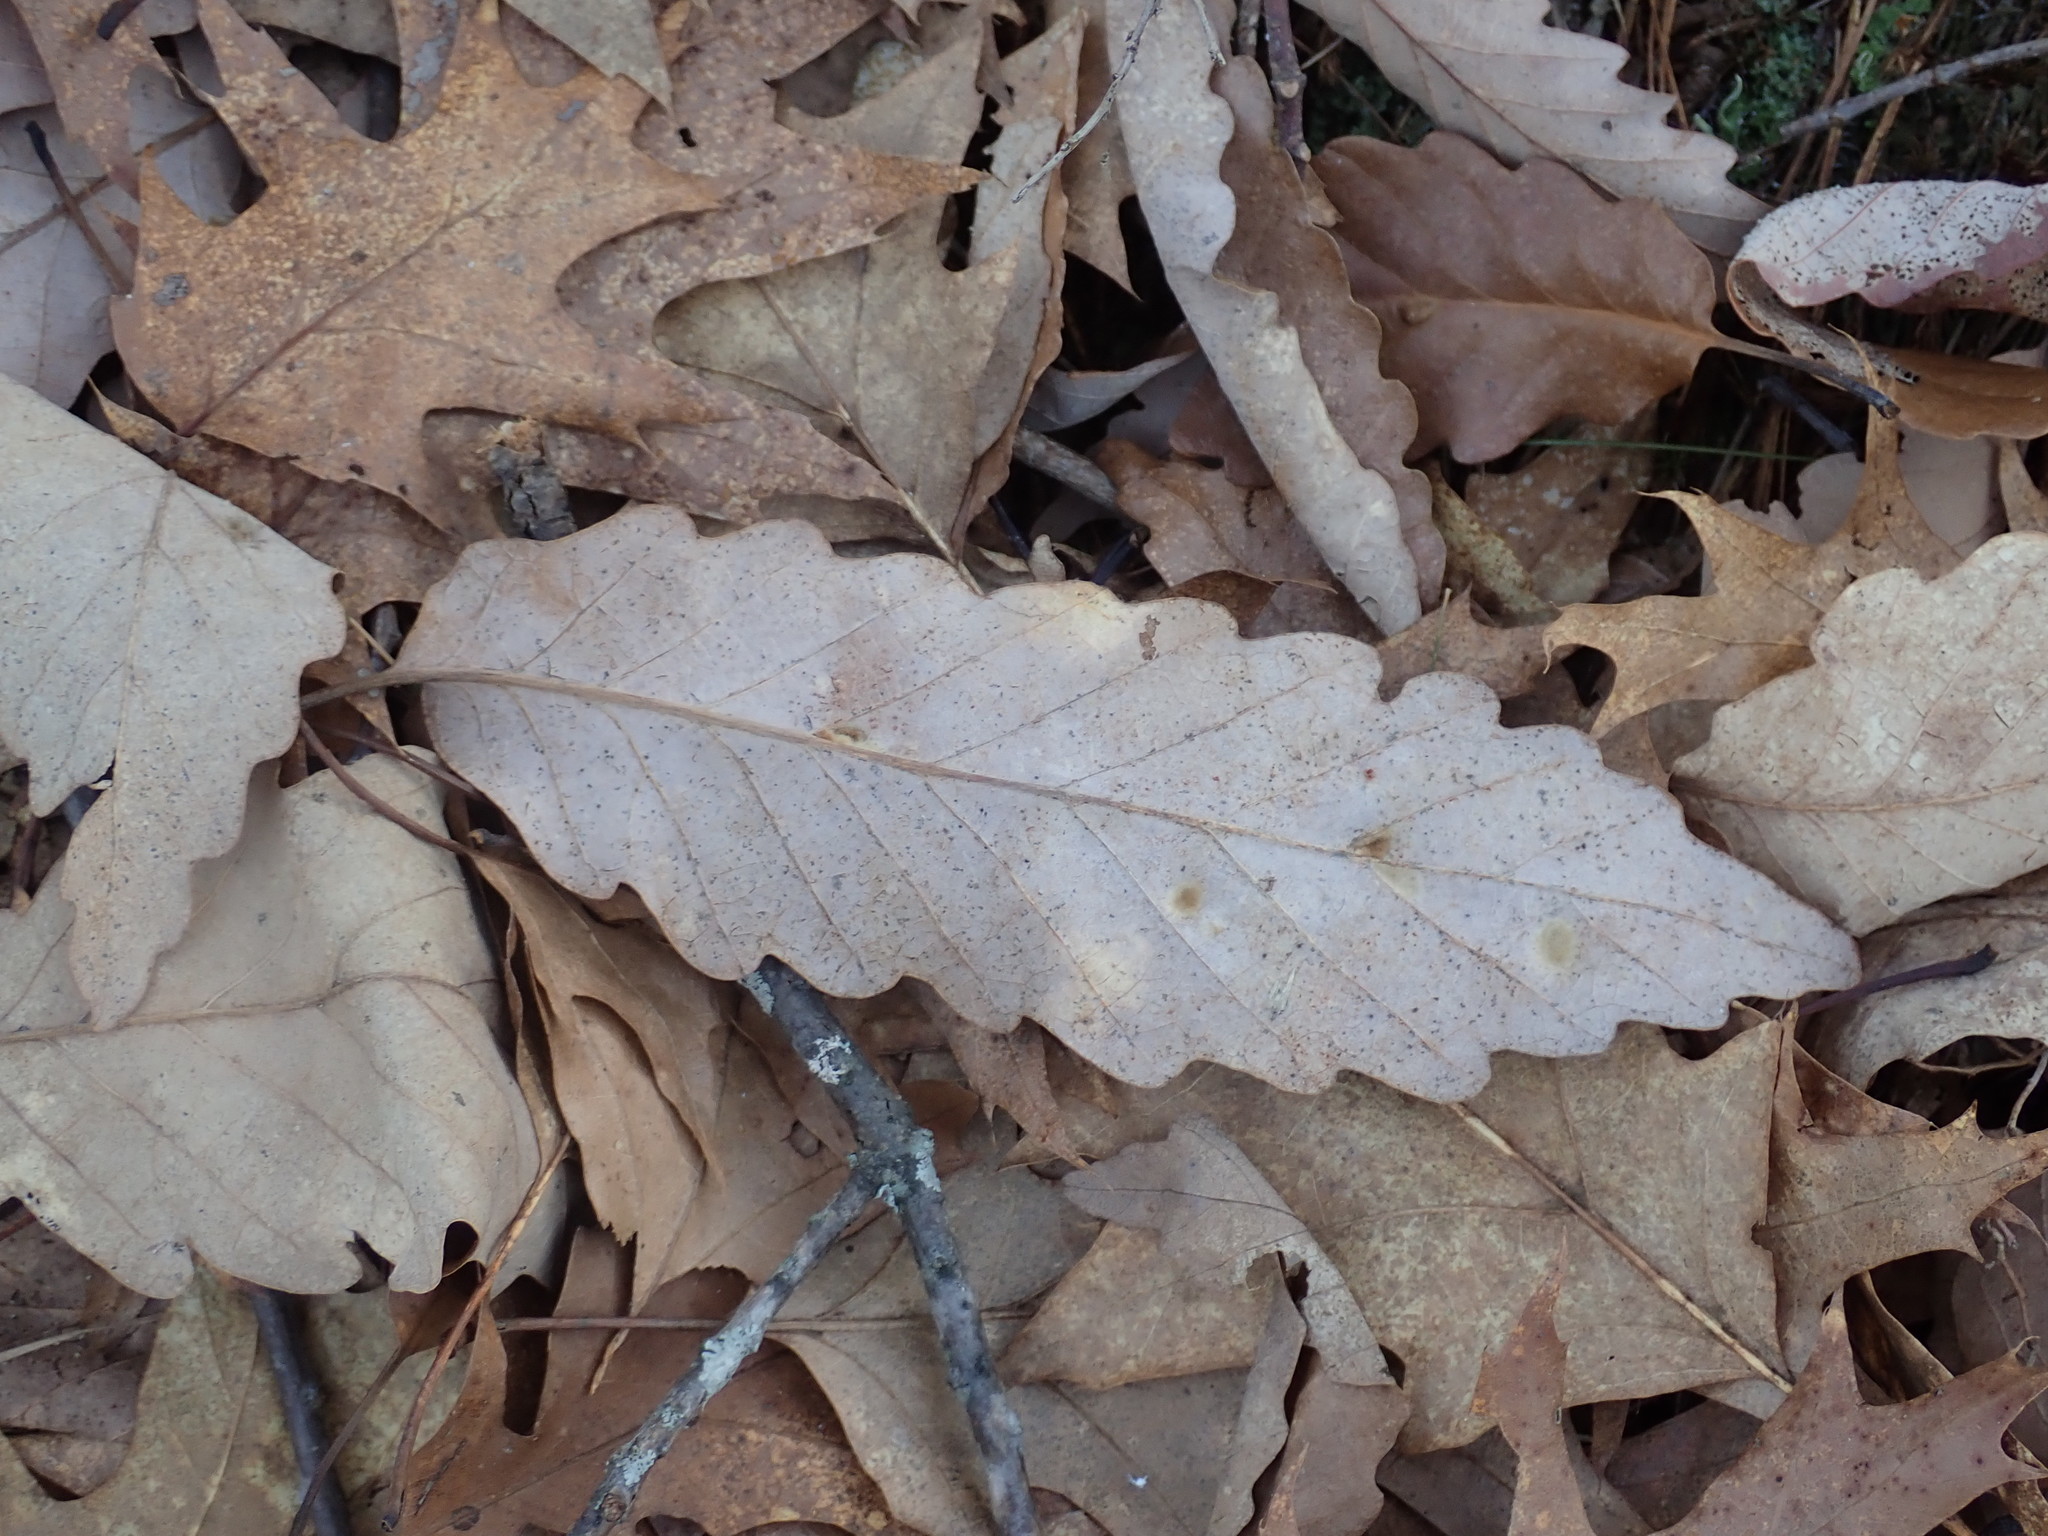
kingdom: Plantae
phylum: Tracheophyta
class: Magnoliopsida
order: Fagales
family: Fagaceae
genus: Quercus
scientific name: Quercus montana
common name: Chestnut oak
